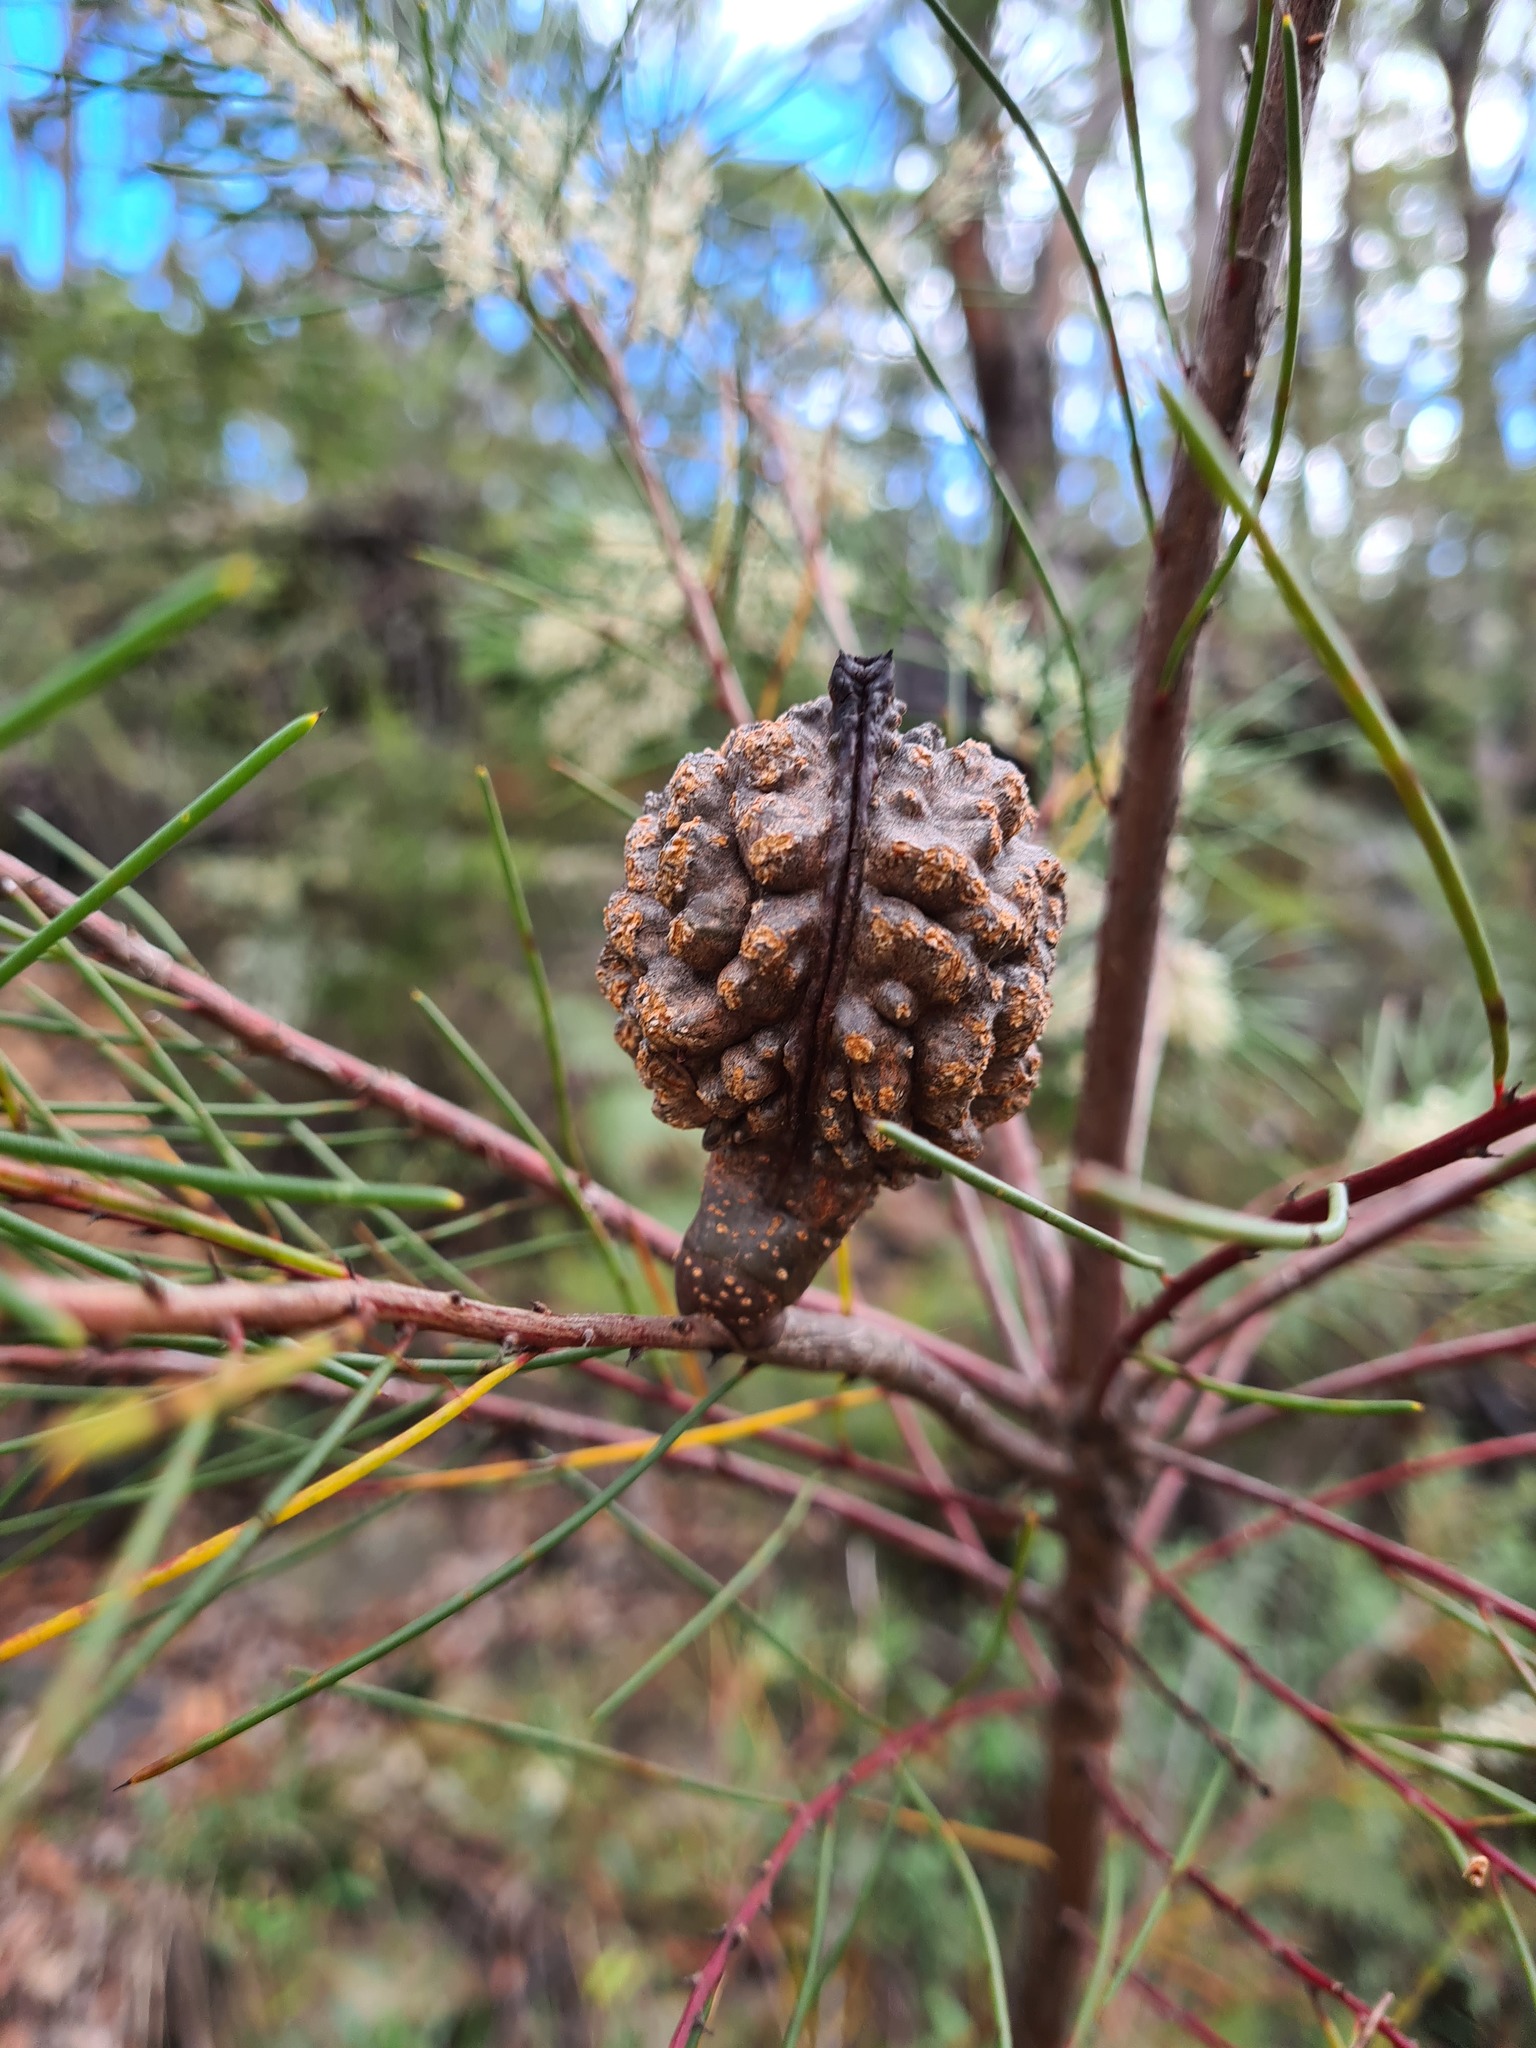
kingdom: Plantae
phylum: Tracheophyta
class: Magnoliopsida
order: Proteales
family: Proteaceae
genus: Hakea
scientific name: Hakea sericea
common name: Needle bush
